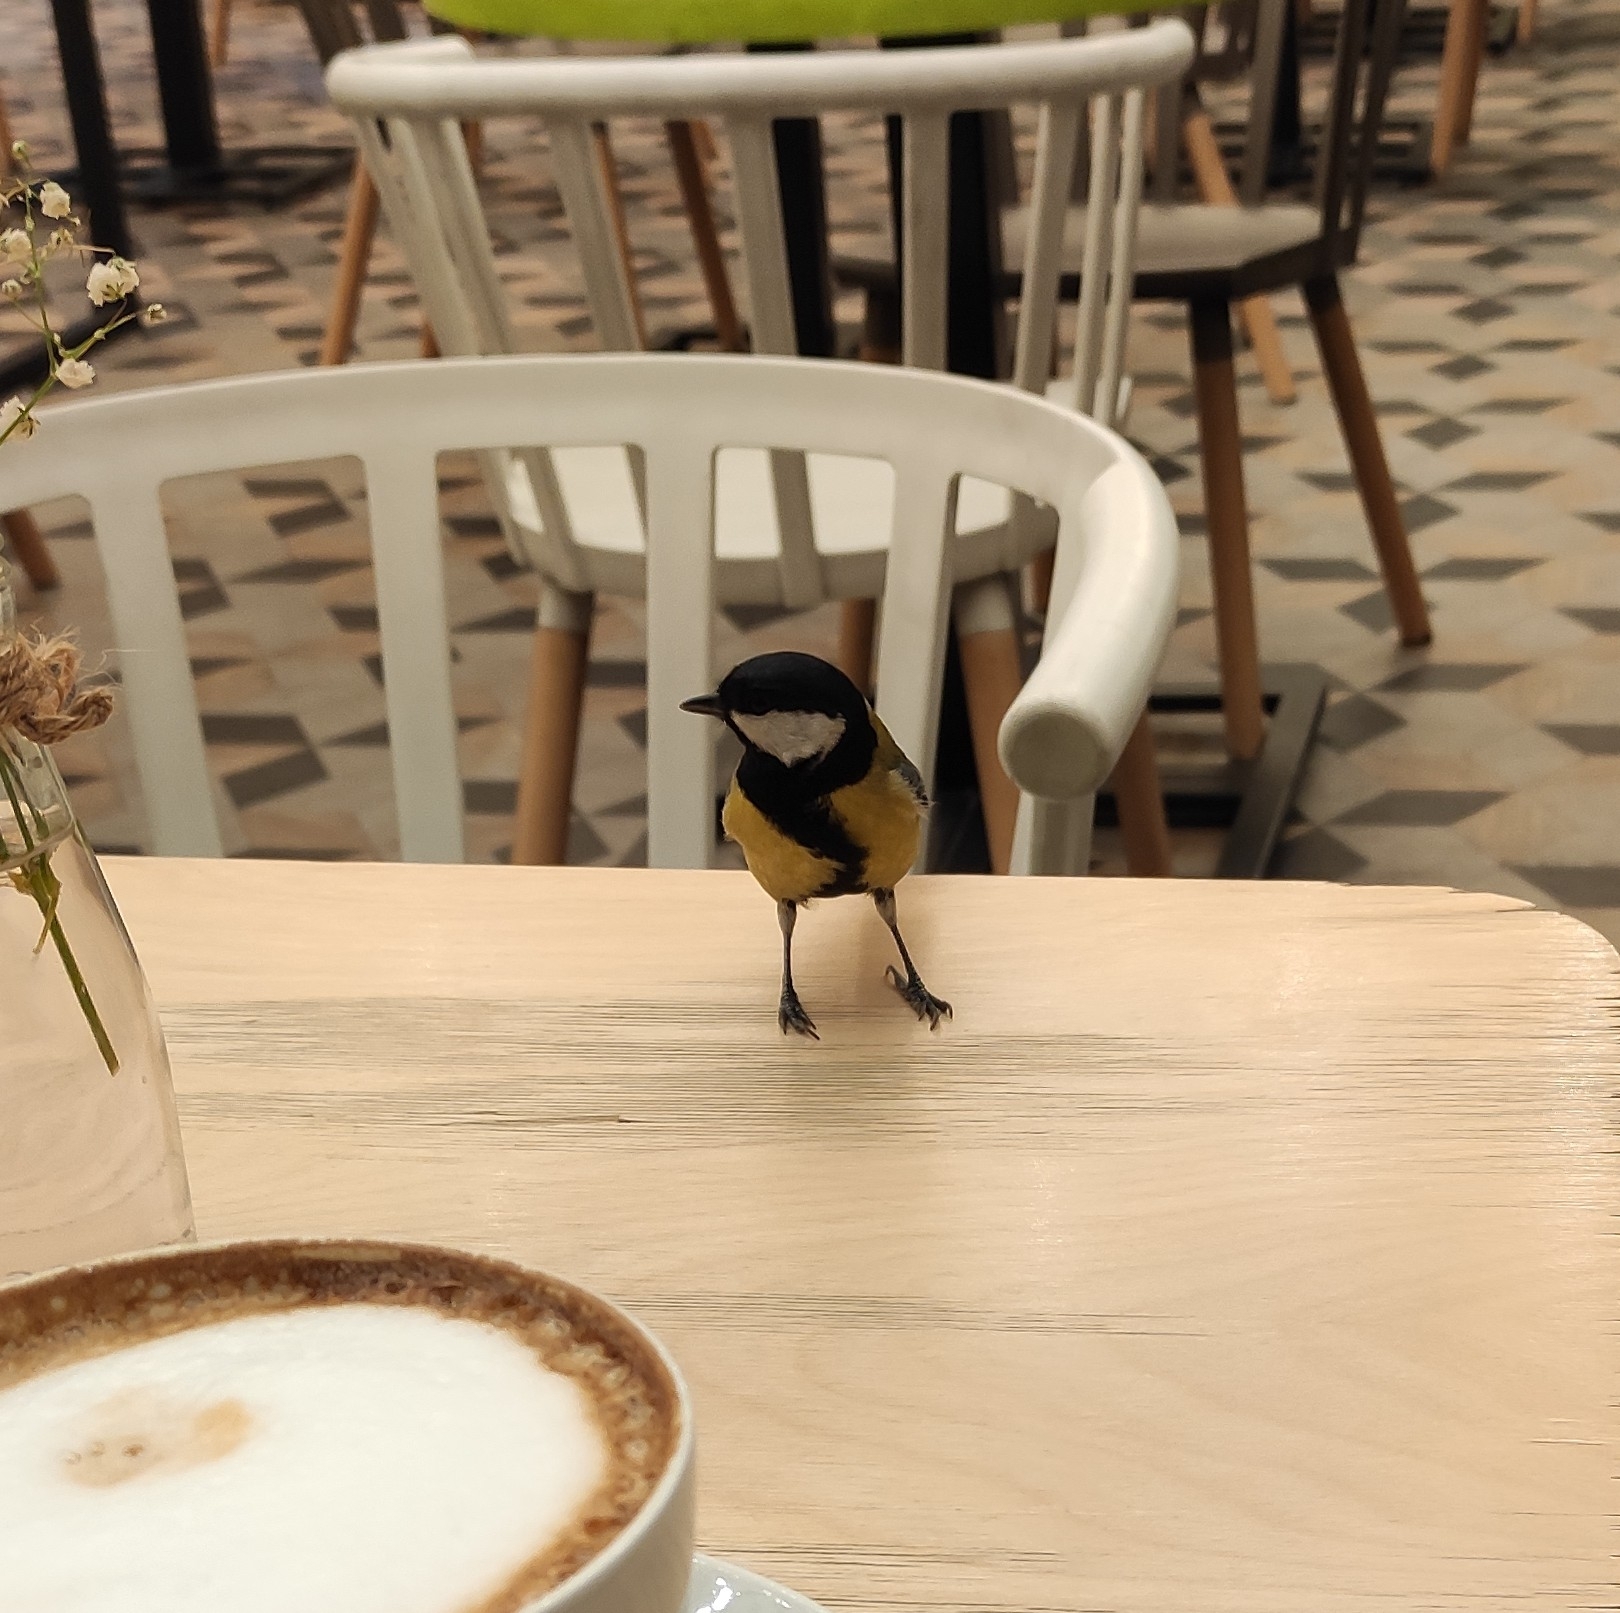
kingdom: Animalia
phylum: Chordata
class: Aves
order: Passeriformes
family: Paridae
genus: Parus
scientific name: Parus major
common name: Great tit
